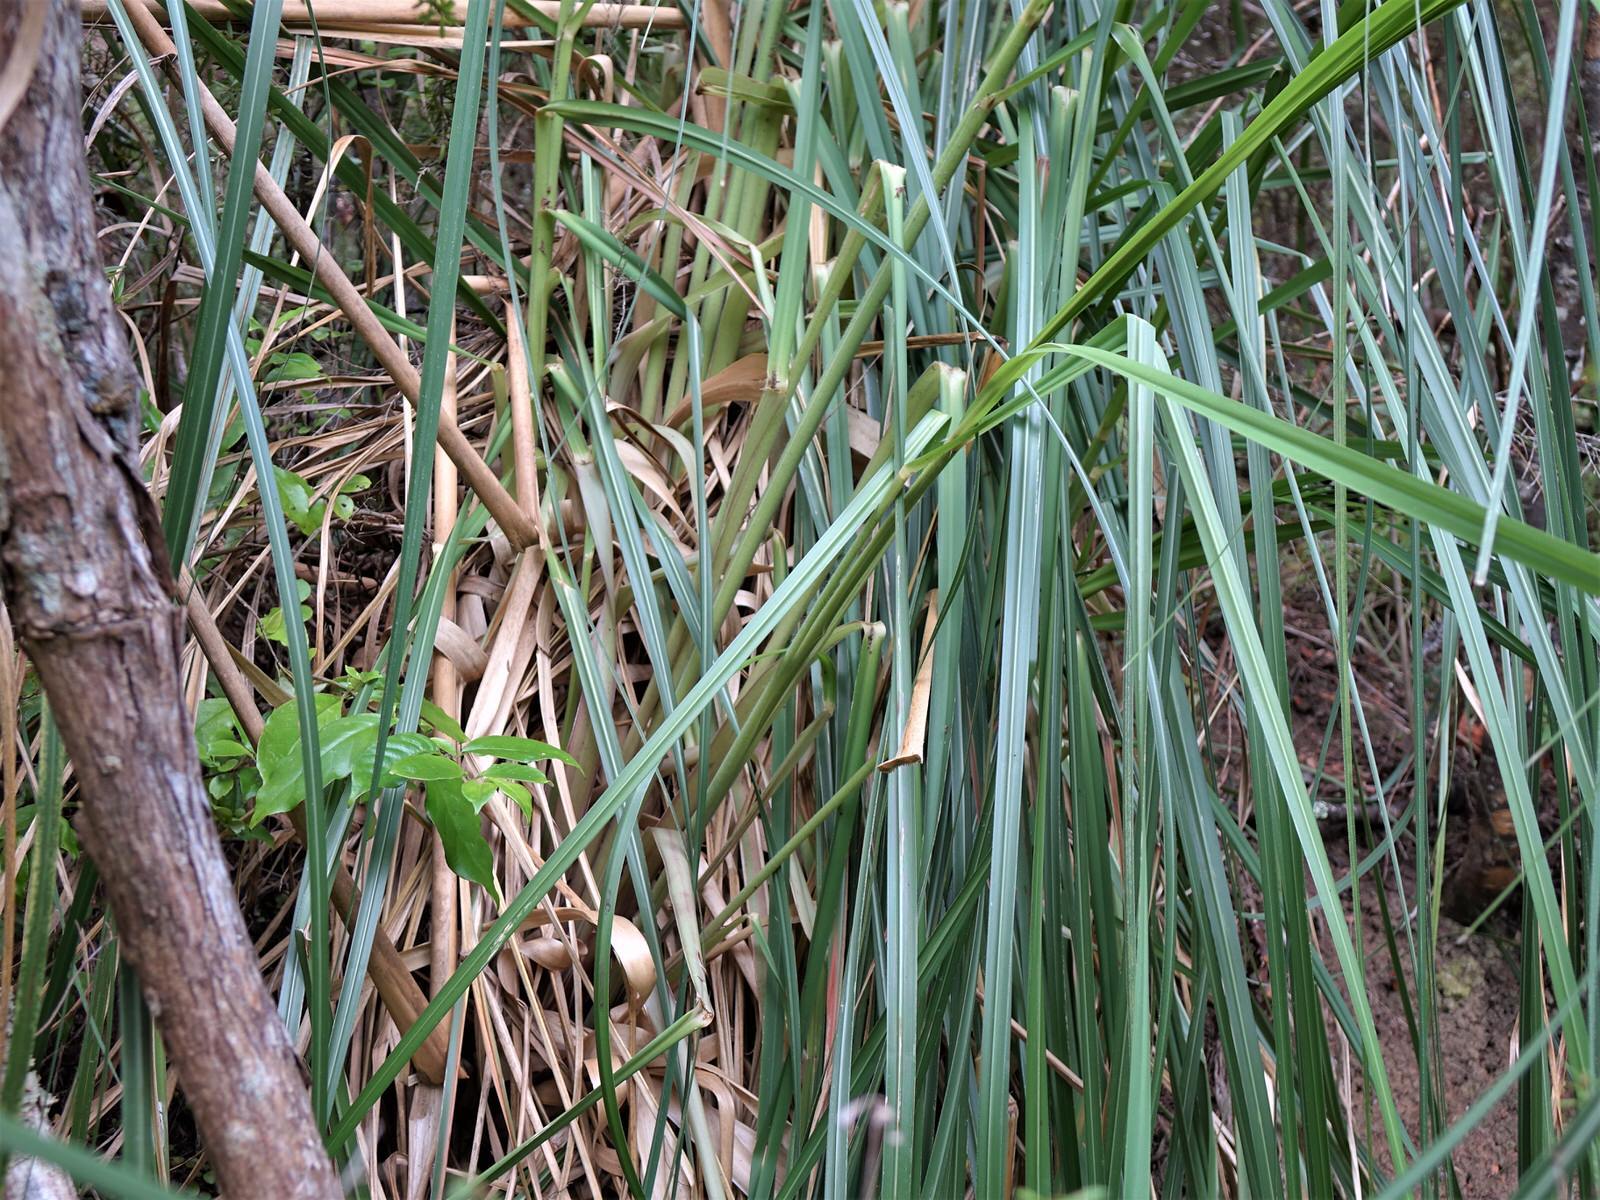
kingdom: Plantae
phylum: Tracheophyta
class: Liliopsida
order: Poales
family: Poaceae
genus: Cortaderia
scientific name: Cortaderia selloana
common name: Uruguayan pampas grass
